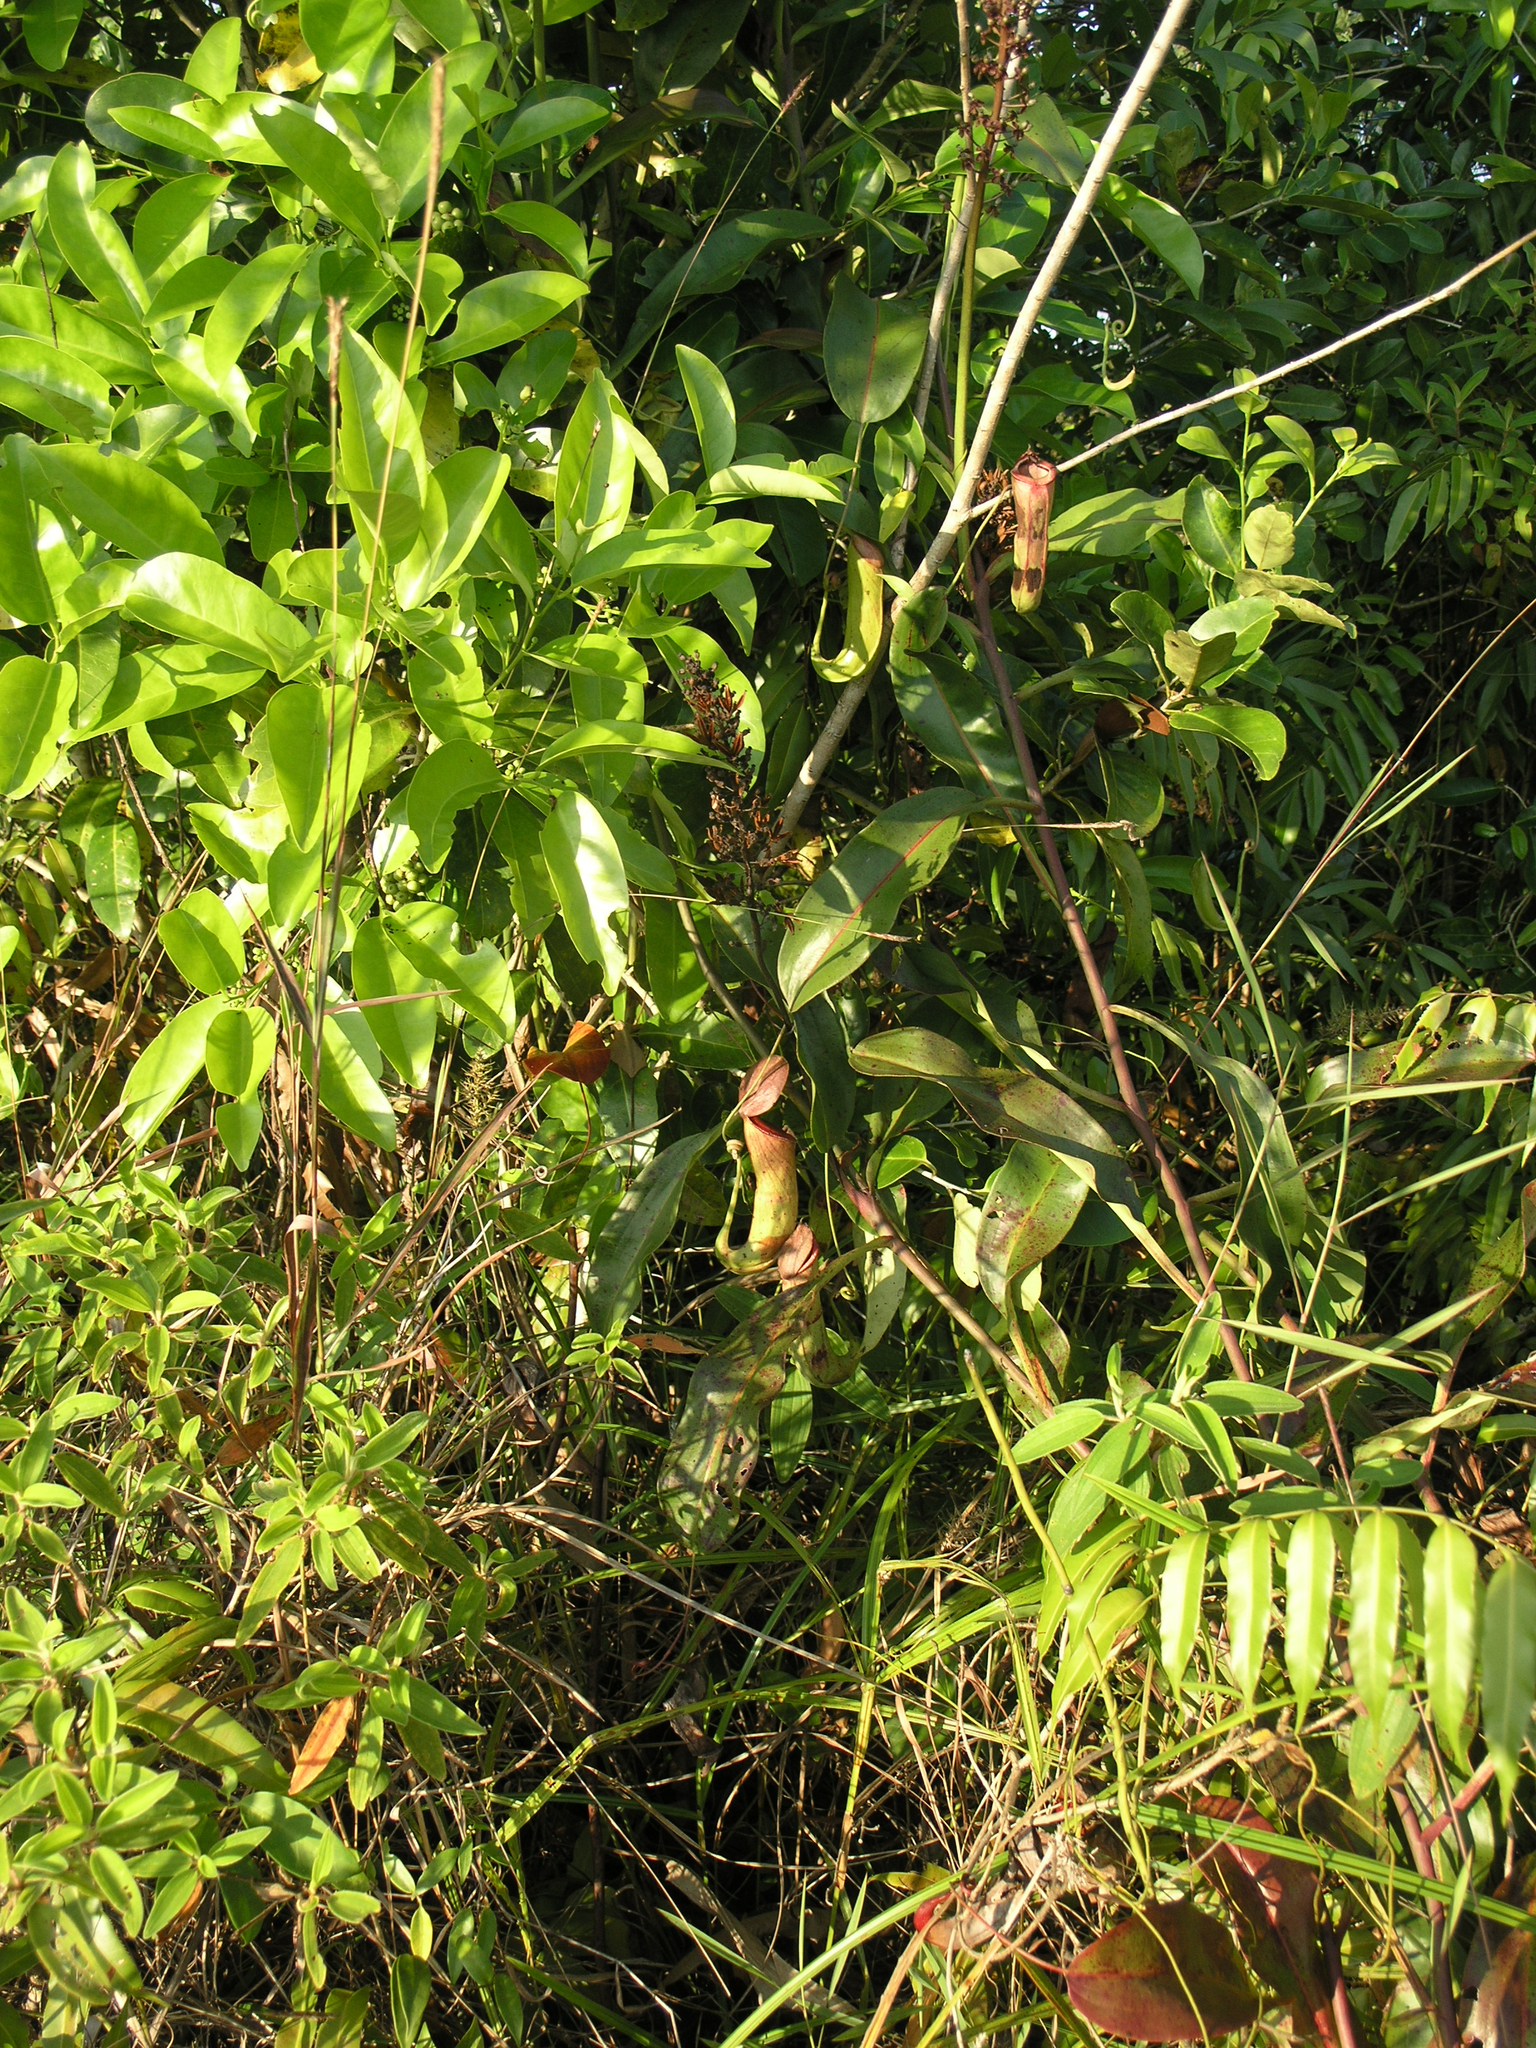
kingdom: Plantae
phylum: Tracheophyta
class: Magnoliopsida
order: Caryophyllales
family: Nepenthaceae
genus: Nepenthes
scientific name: Nepenthes mirabilis
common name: Tropical pitcherplant
